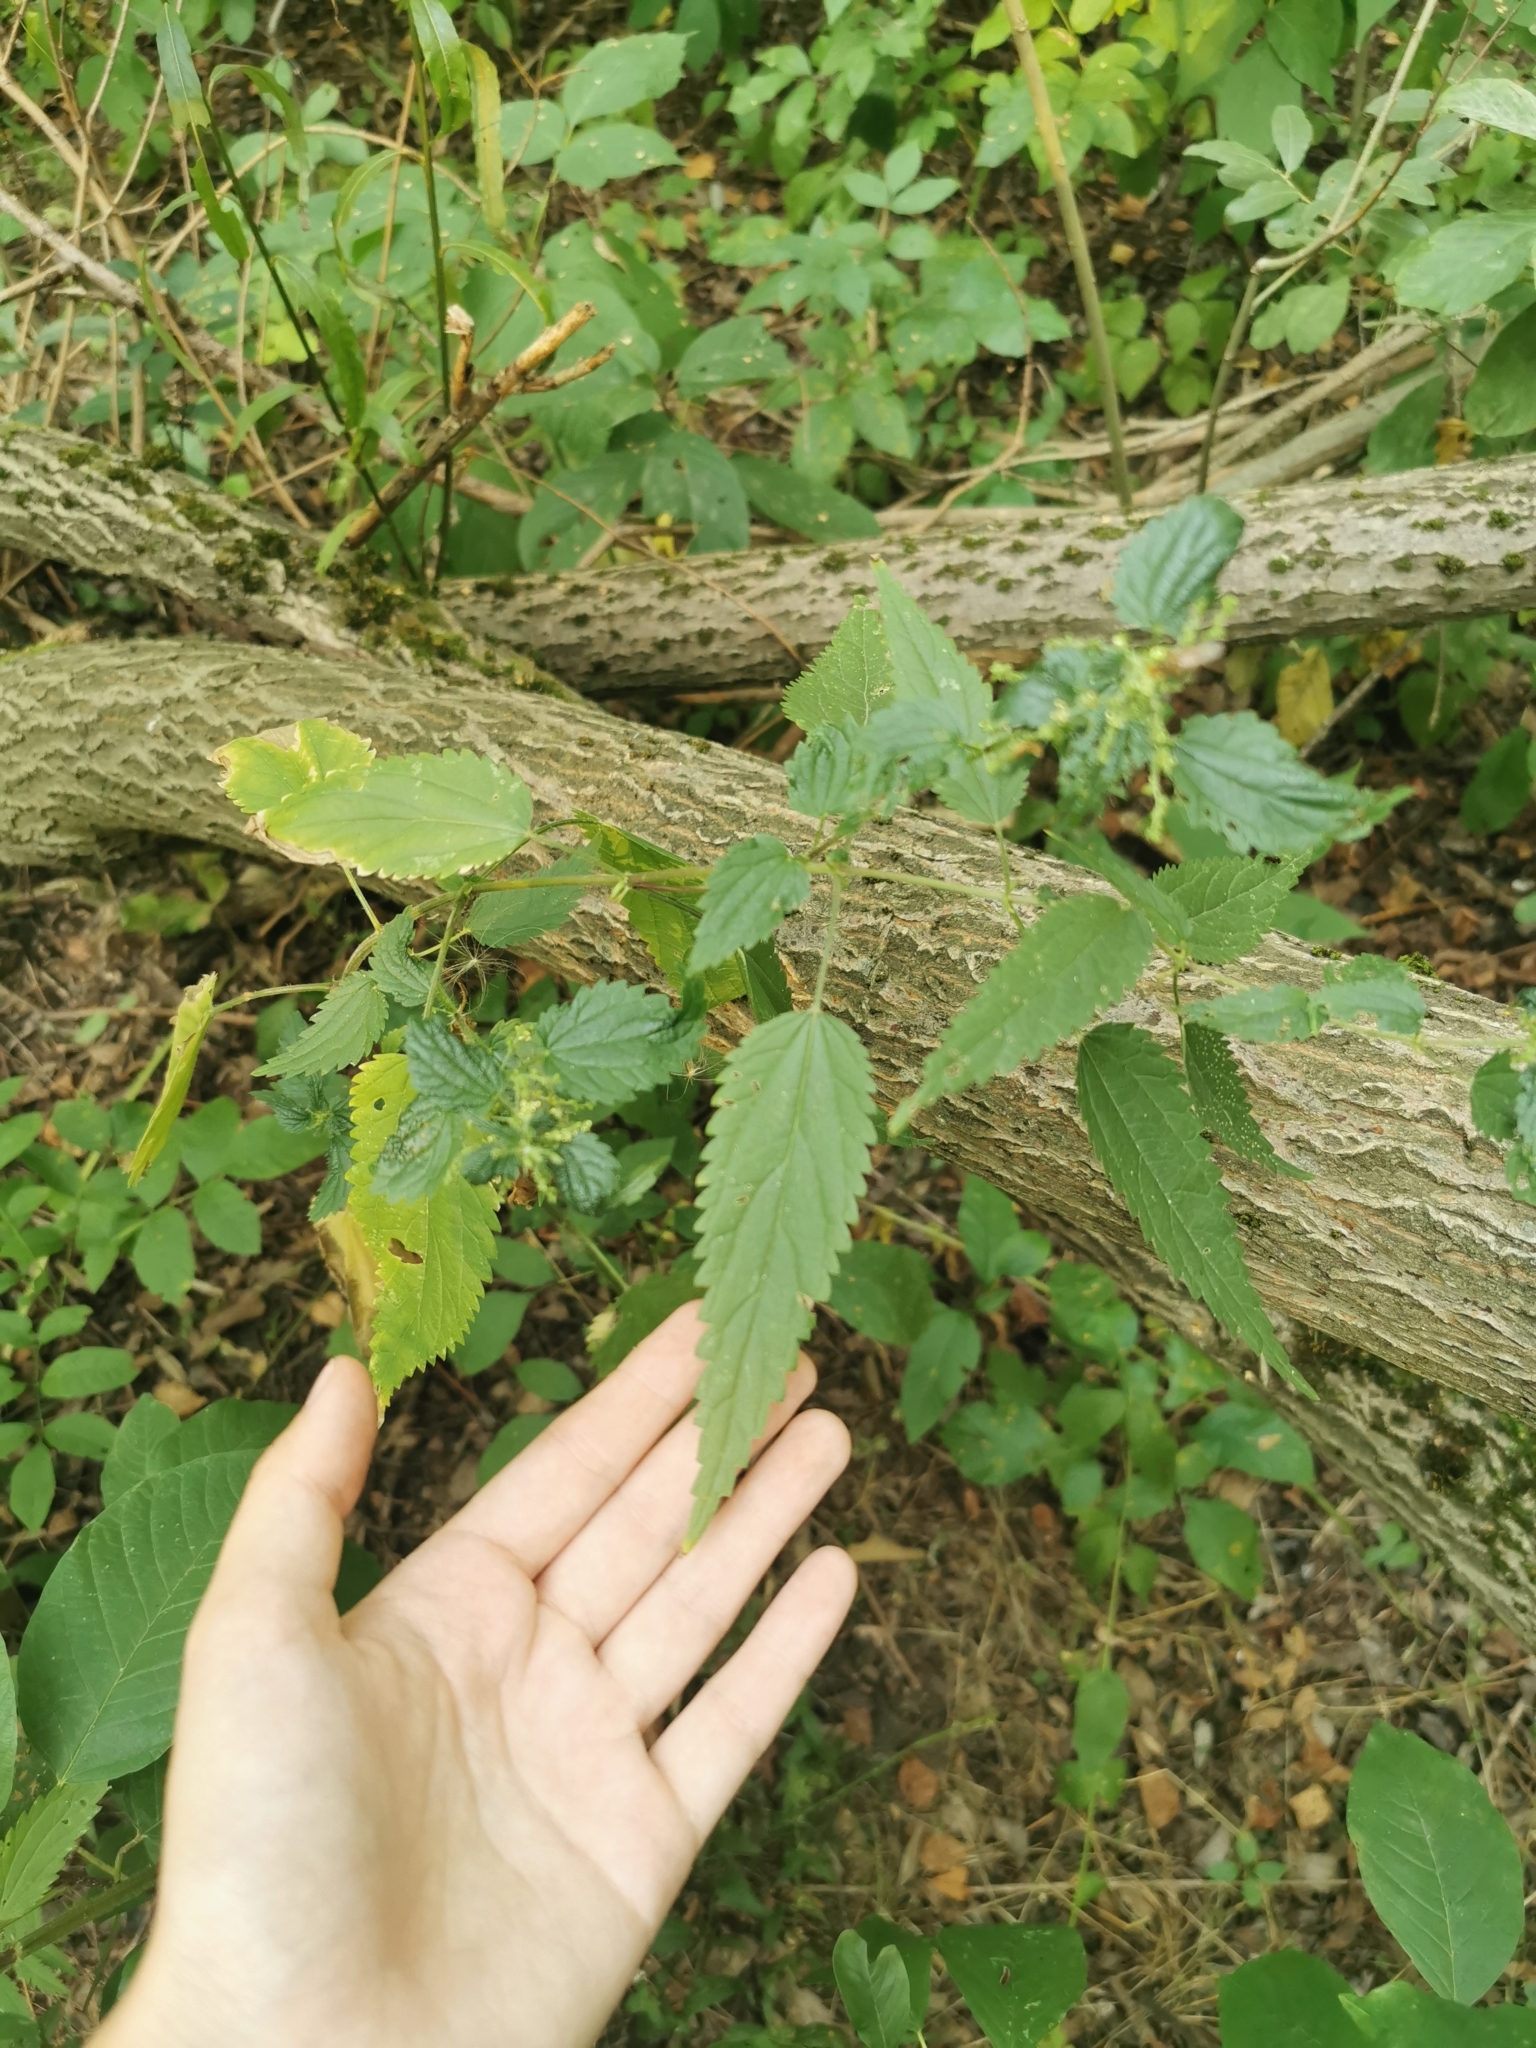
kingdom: Plantae
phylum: Tracheophyta
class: Magnoliopsida
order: Rosales
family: Urticaceae
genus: Urtica
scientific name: Urtica dioica
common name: Common nettle
